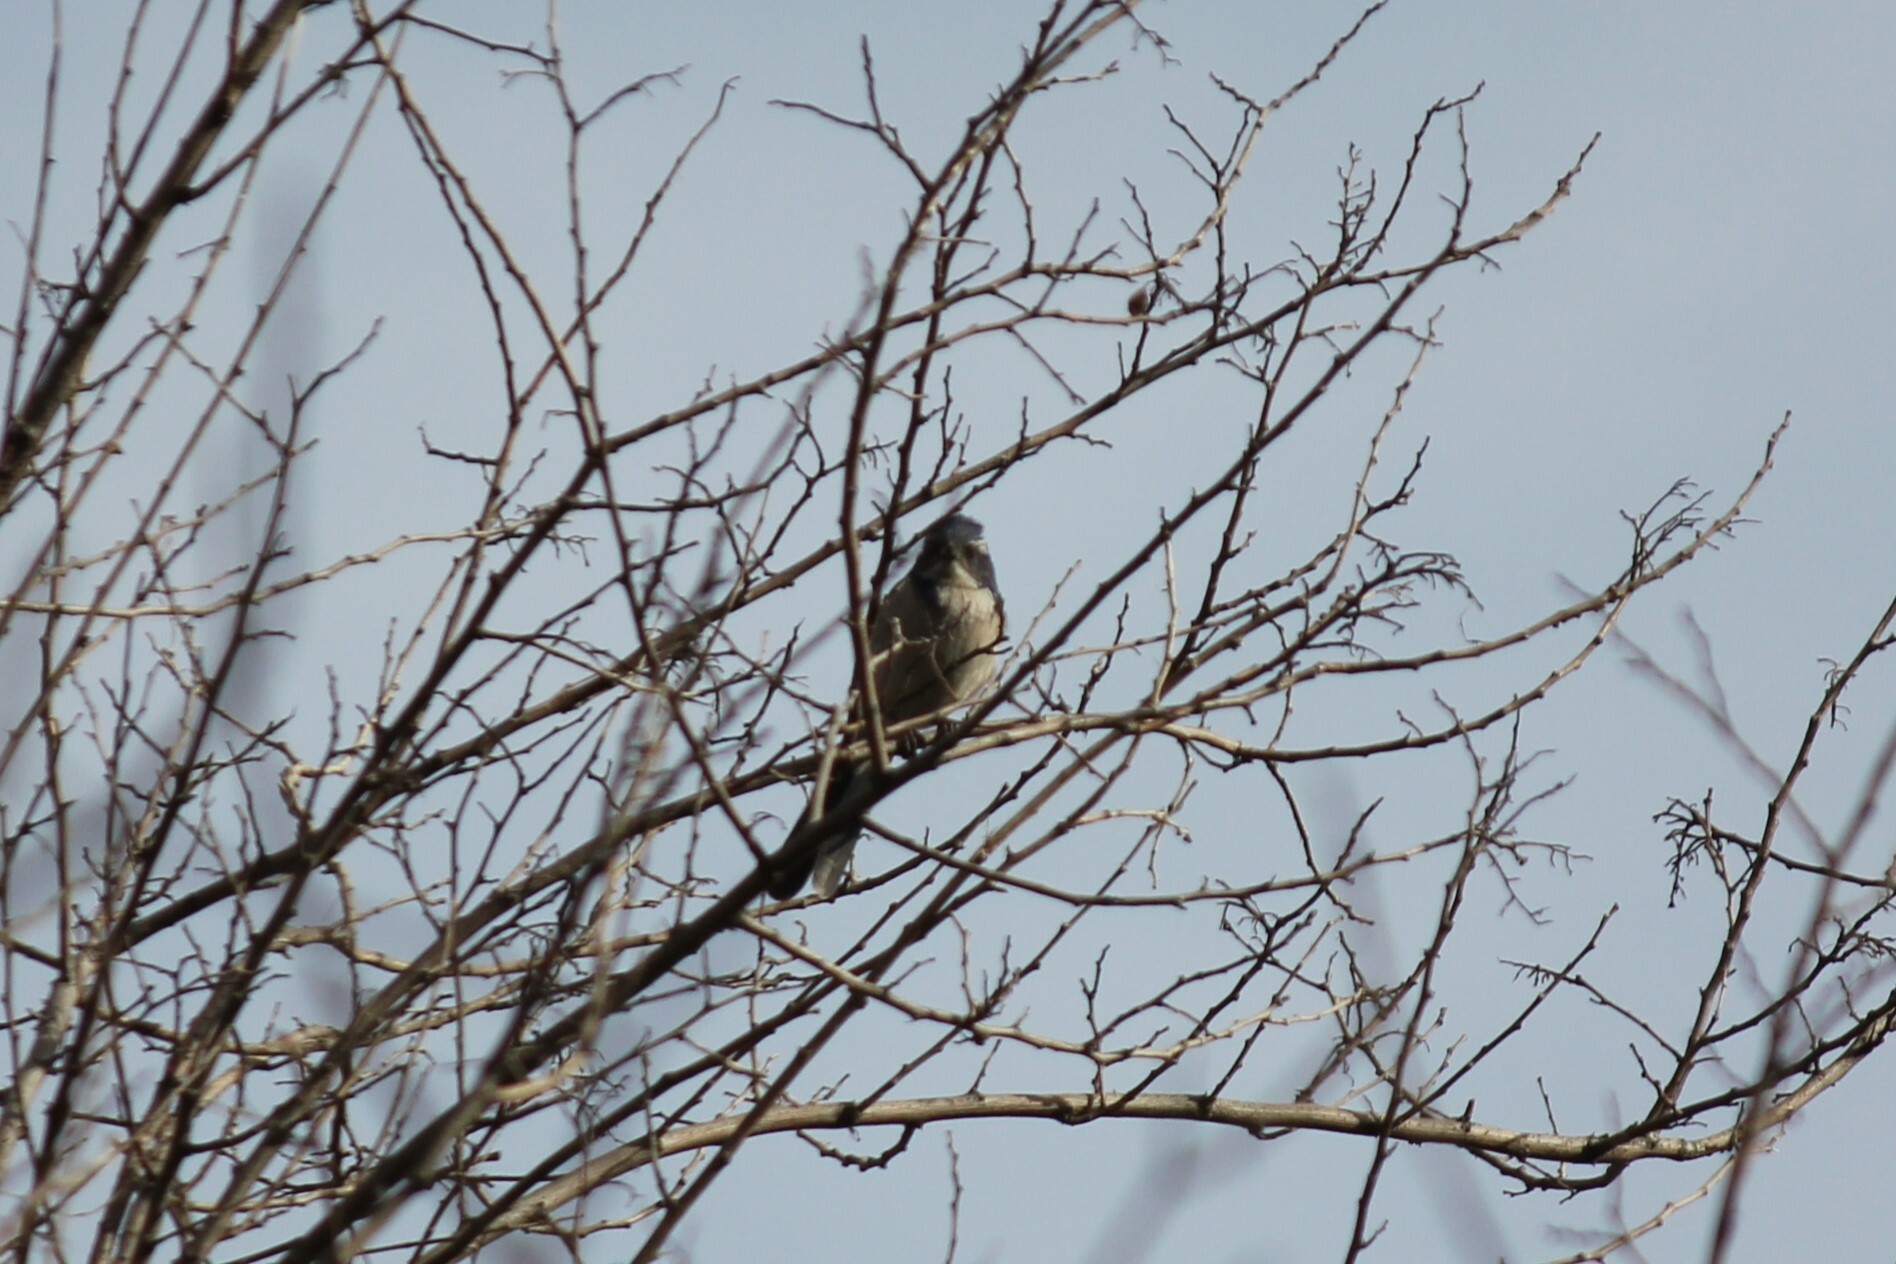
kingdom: Animalia
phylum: Chordata
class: Aves
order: Passeriformes
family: Corvidae
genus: Aphelocoma
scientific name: Aphelocoma californica
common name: California scrub-jay
